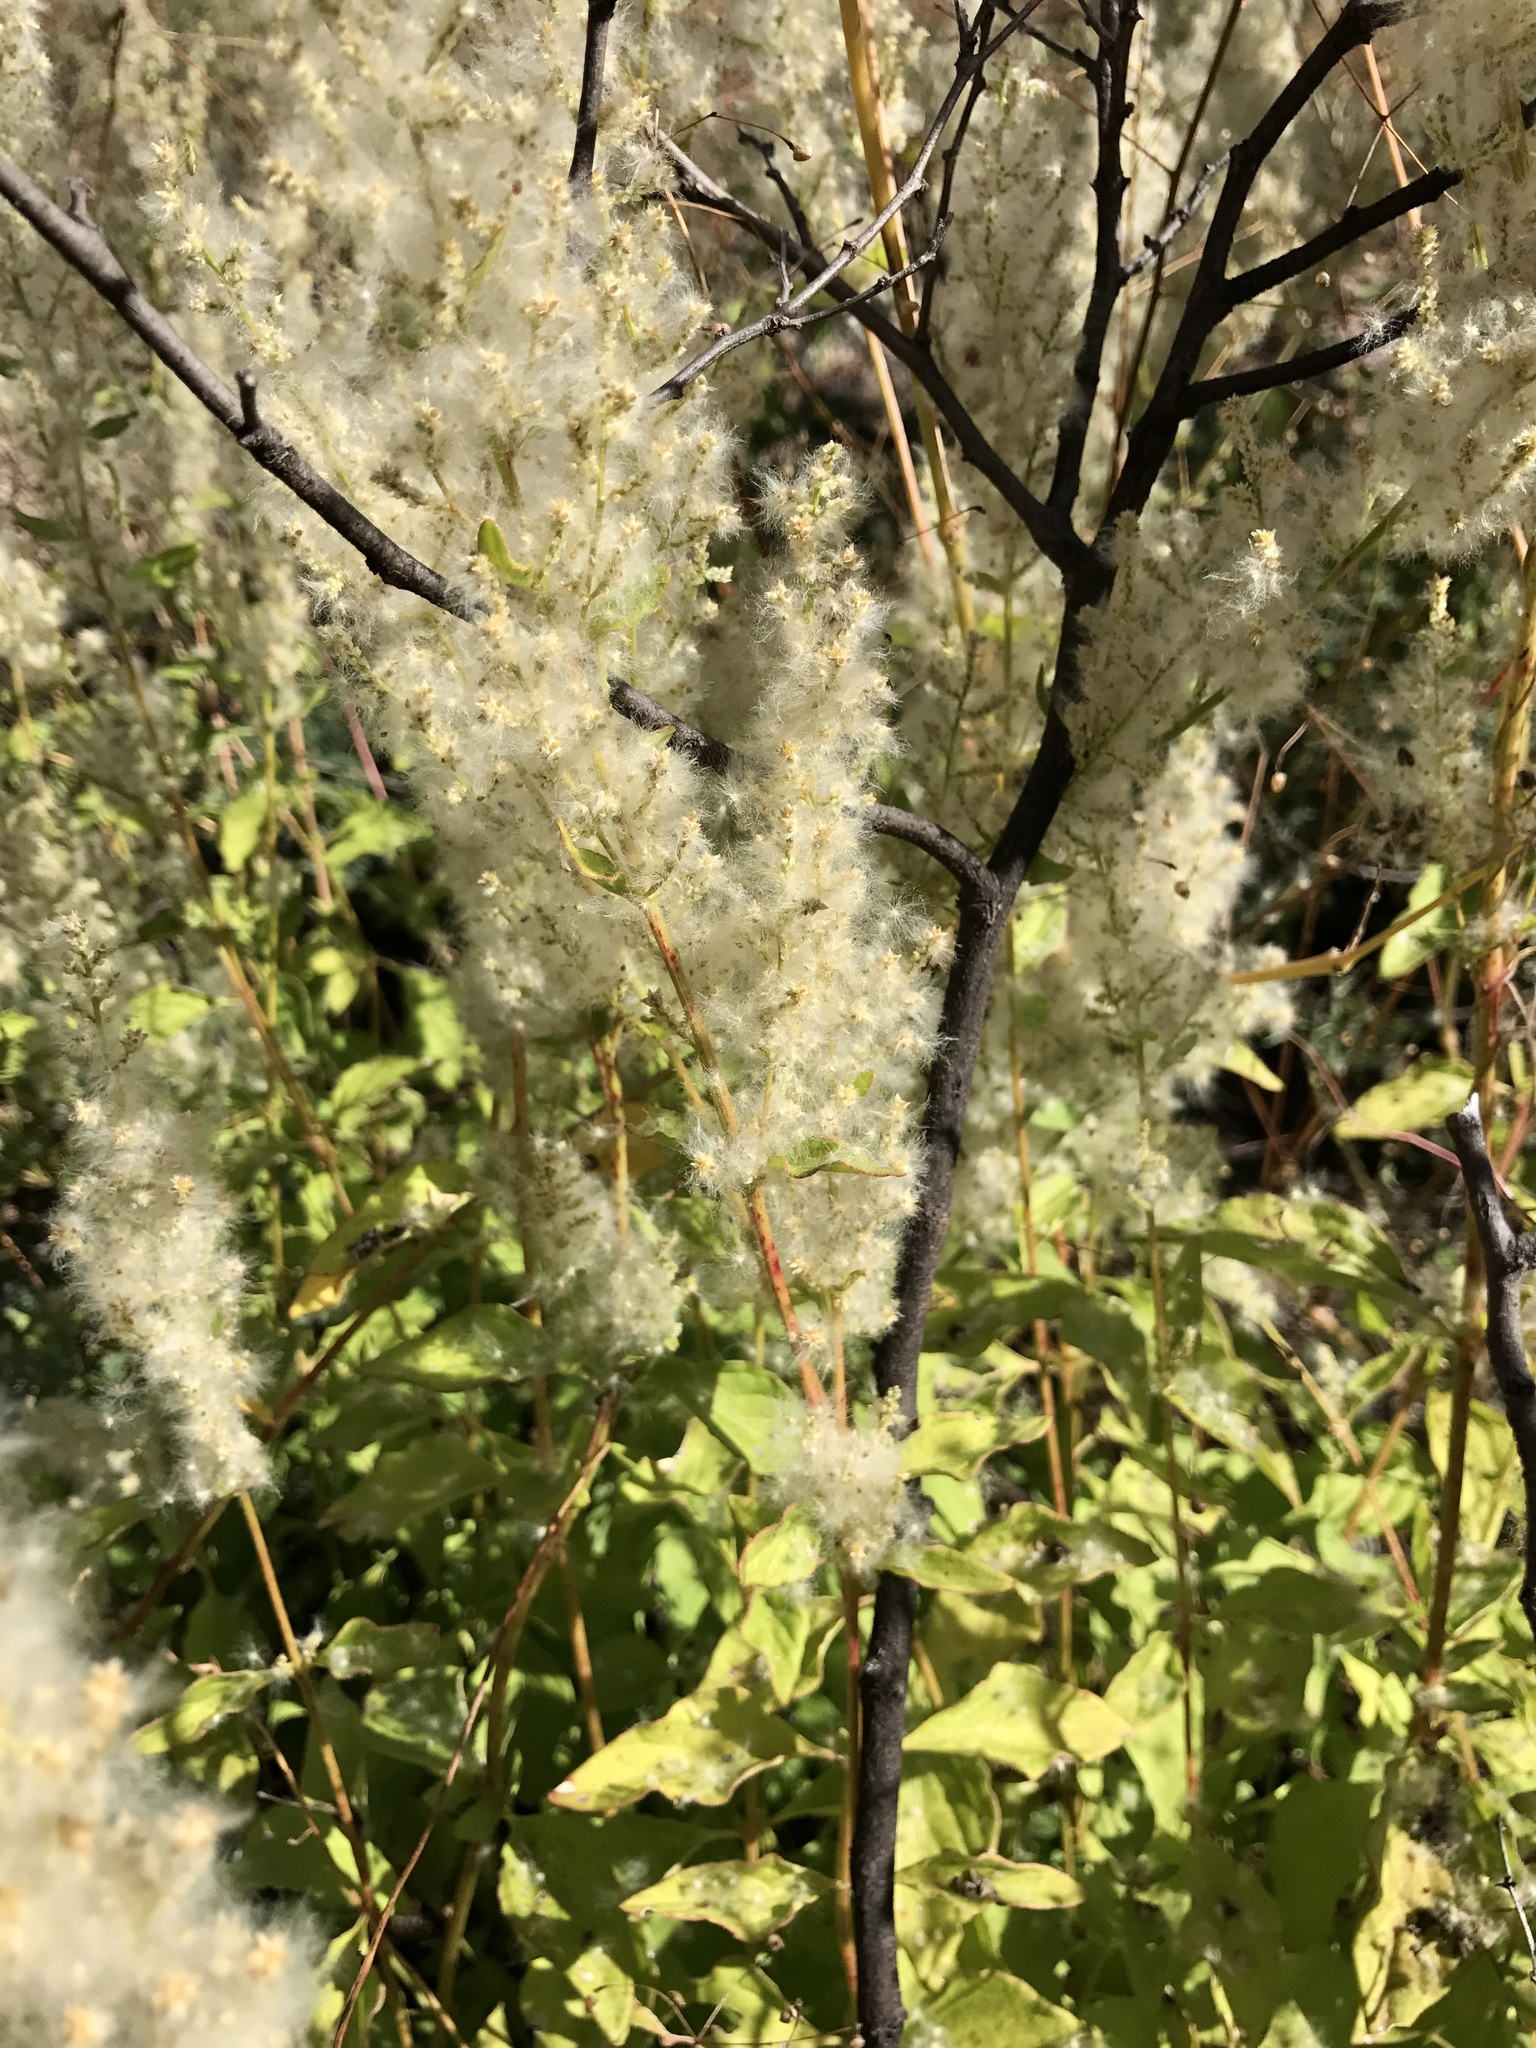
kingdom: Plantae
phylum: Tracheophyta
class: Magnoliopsida
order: Caryophyllales
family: Amaranthaceae
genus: Iresine
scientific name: Iresine heterophylla
